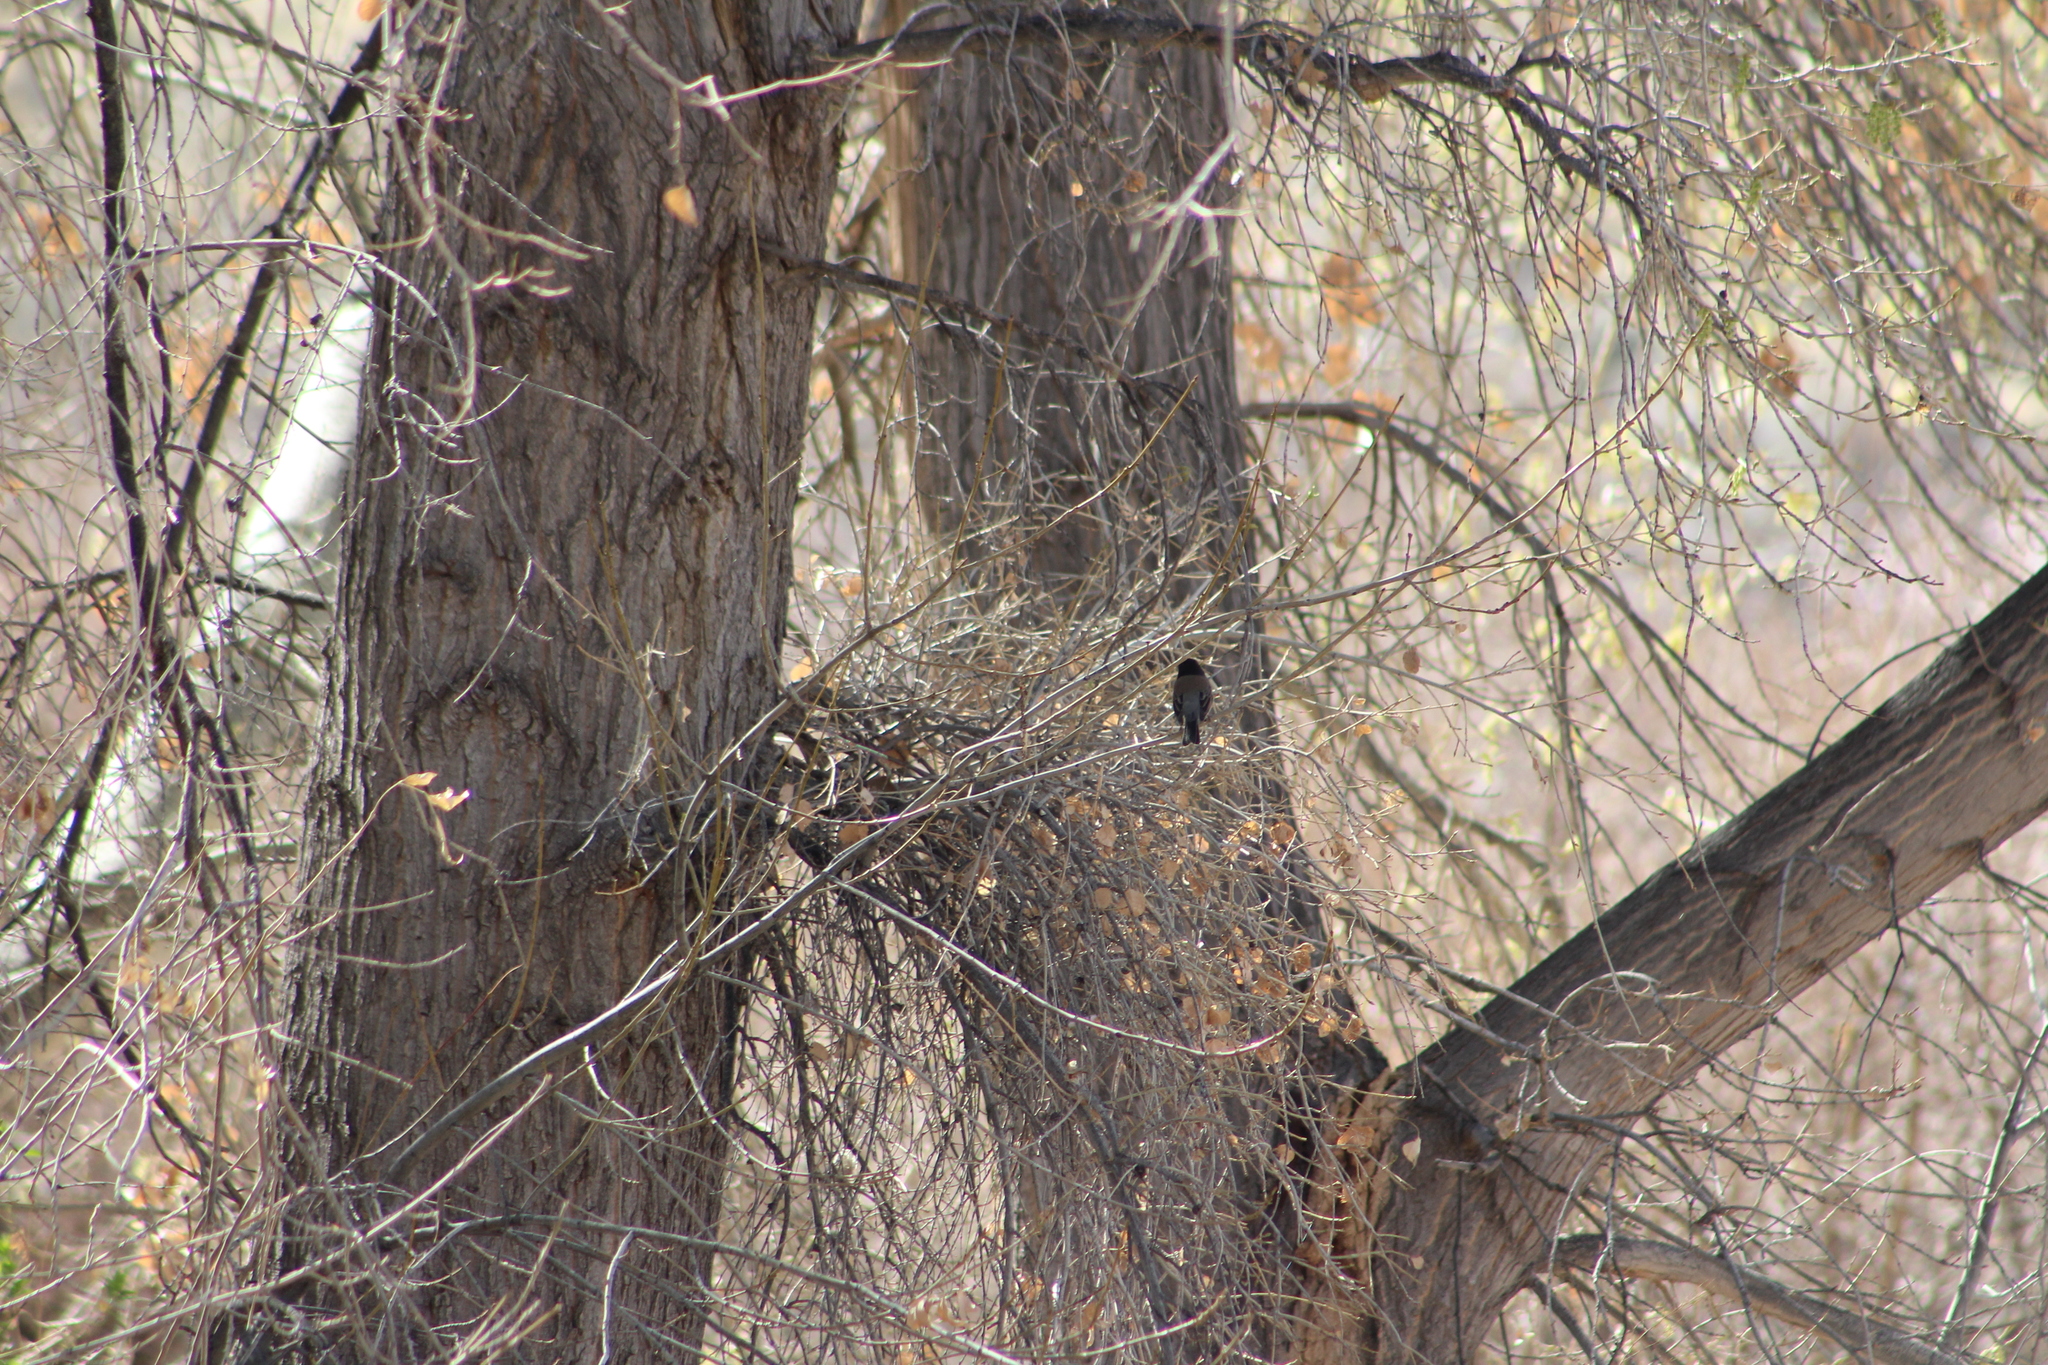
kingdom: Animalia
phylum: Chordata
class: Aves
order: Passeriformes
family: Passerellidae
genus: Junco
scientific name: Junco hyemalis
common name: Dark-eyed junco
